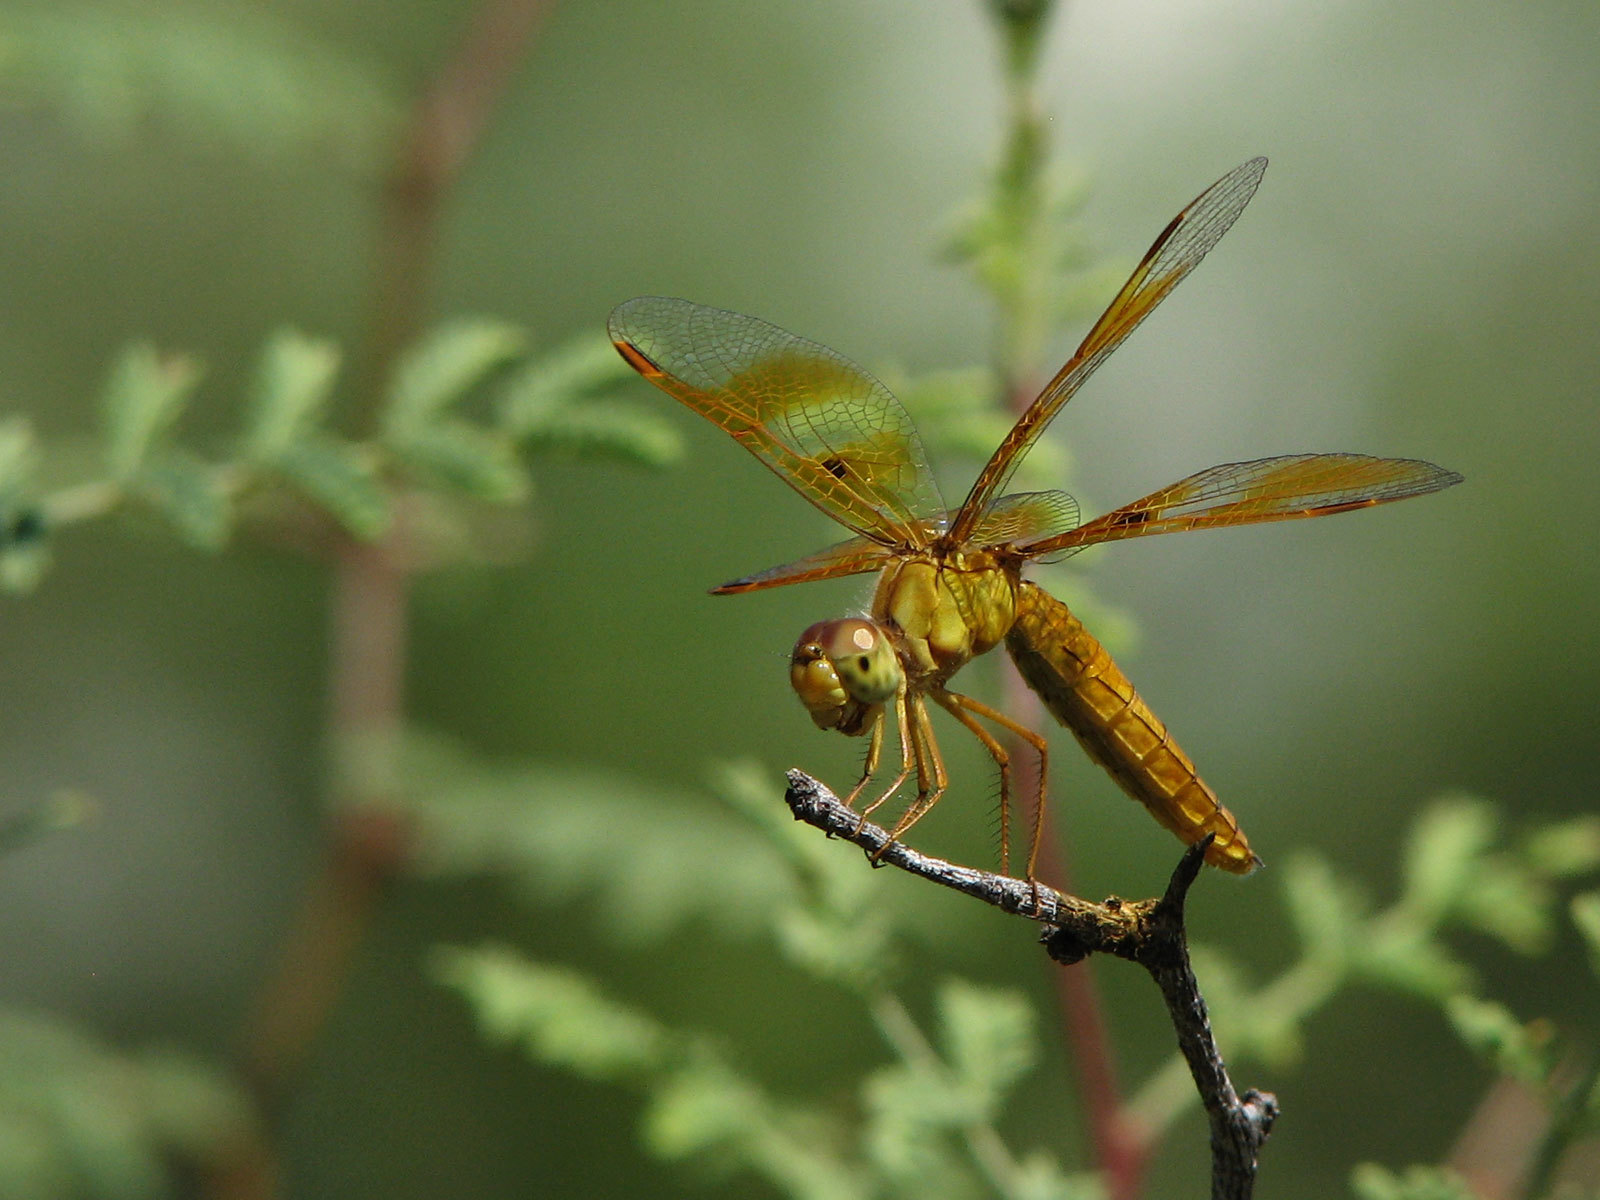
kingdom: Animalia
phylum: Arthropoda
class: Insecta
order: Odonata
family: Libellulidae
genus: Perithemis
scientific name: Perithemis intensa
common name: Mexican amberwing
